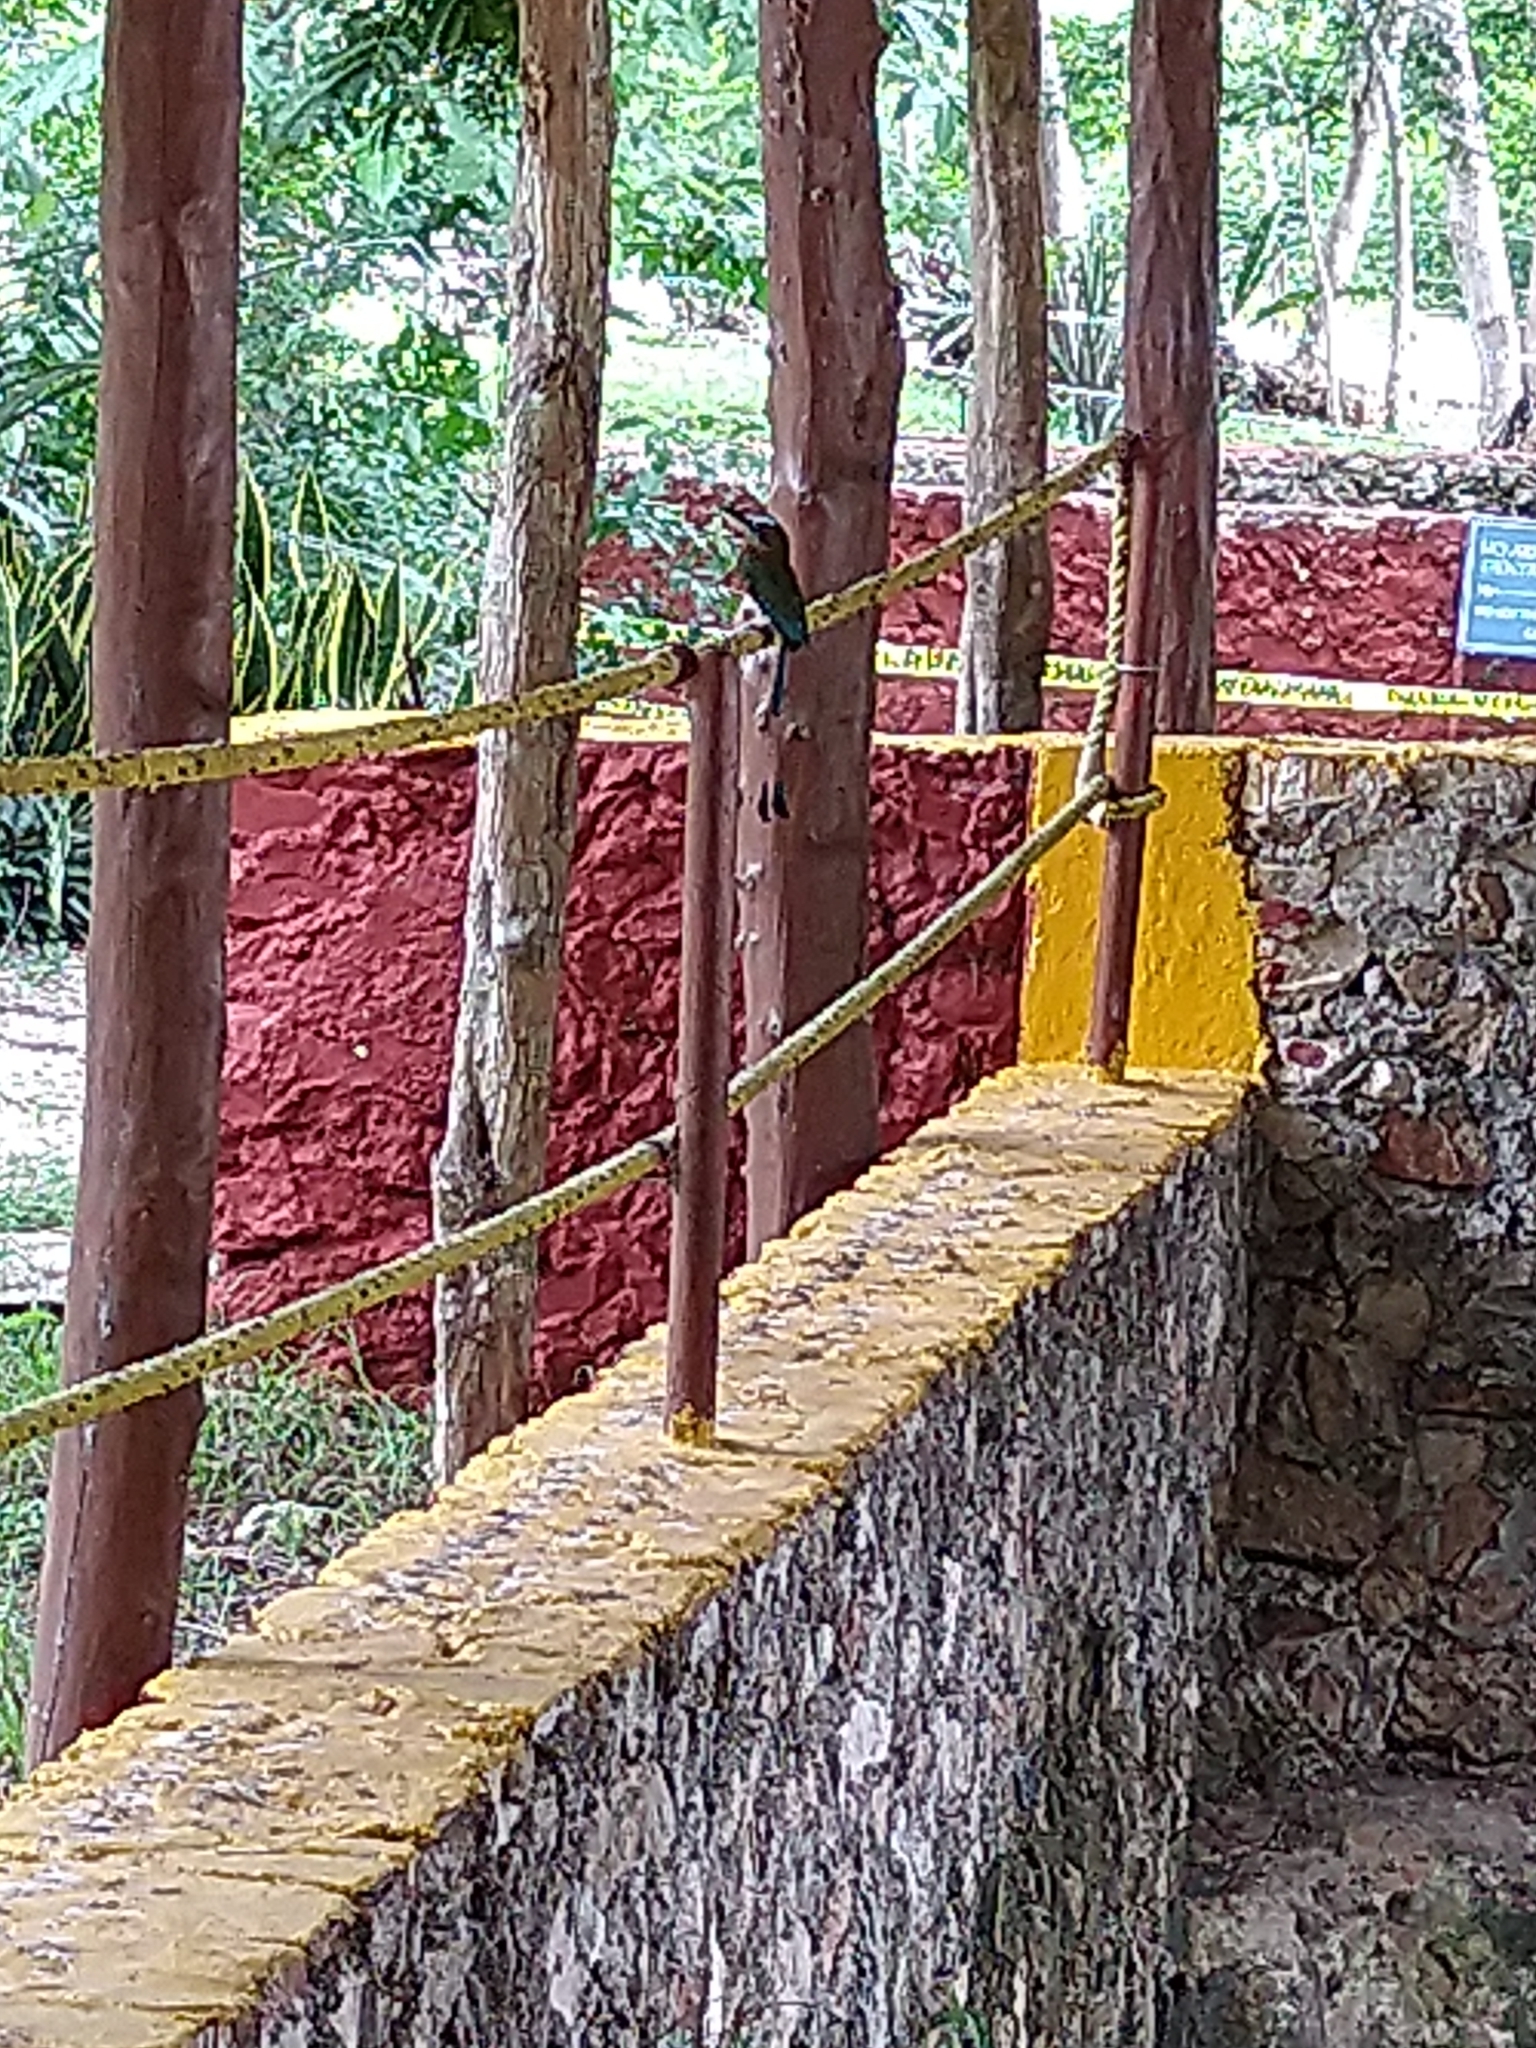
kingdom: Animalia
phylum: Chordata
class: Aves
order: Coraciiformes
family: Momotidae
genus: Eumomota
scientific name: Eumomota superciliosa
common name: Turquoise-browed motmot
